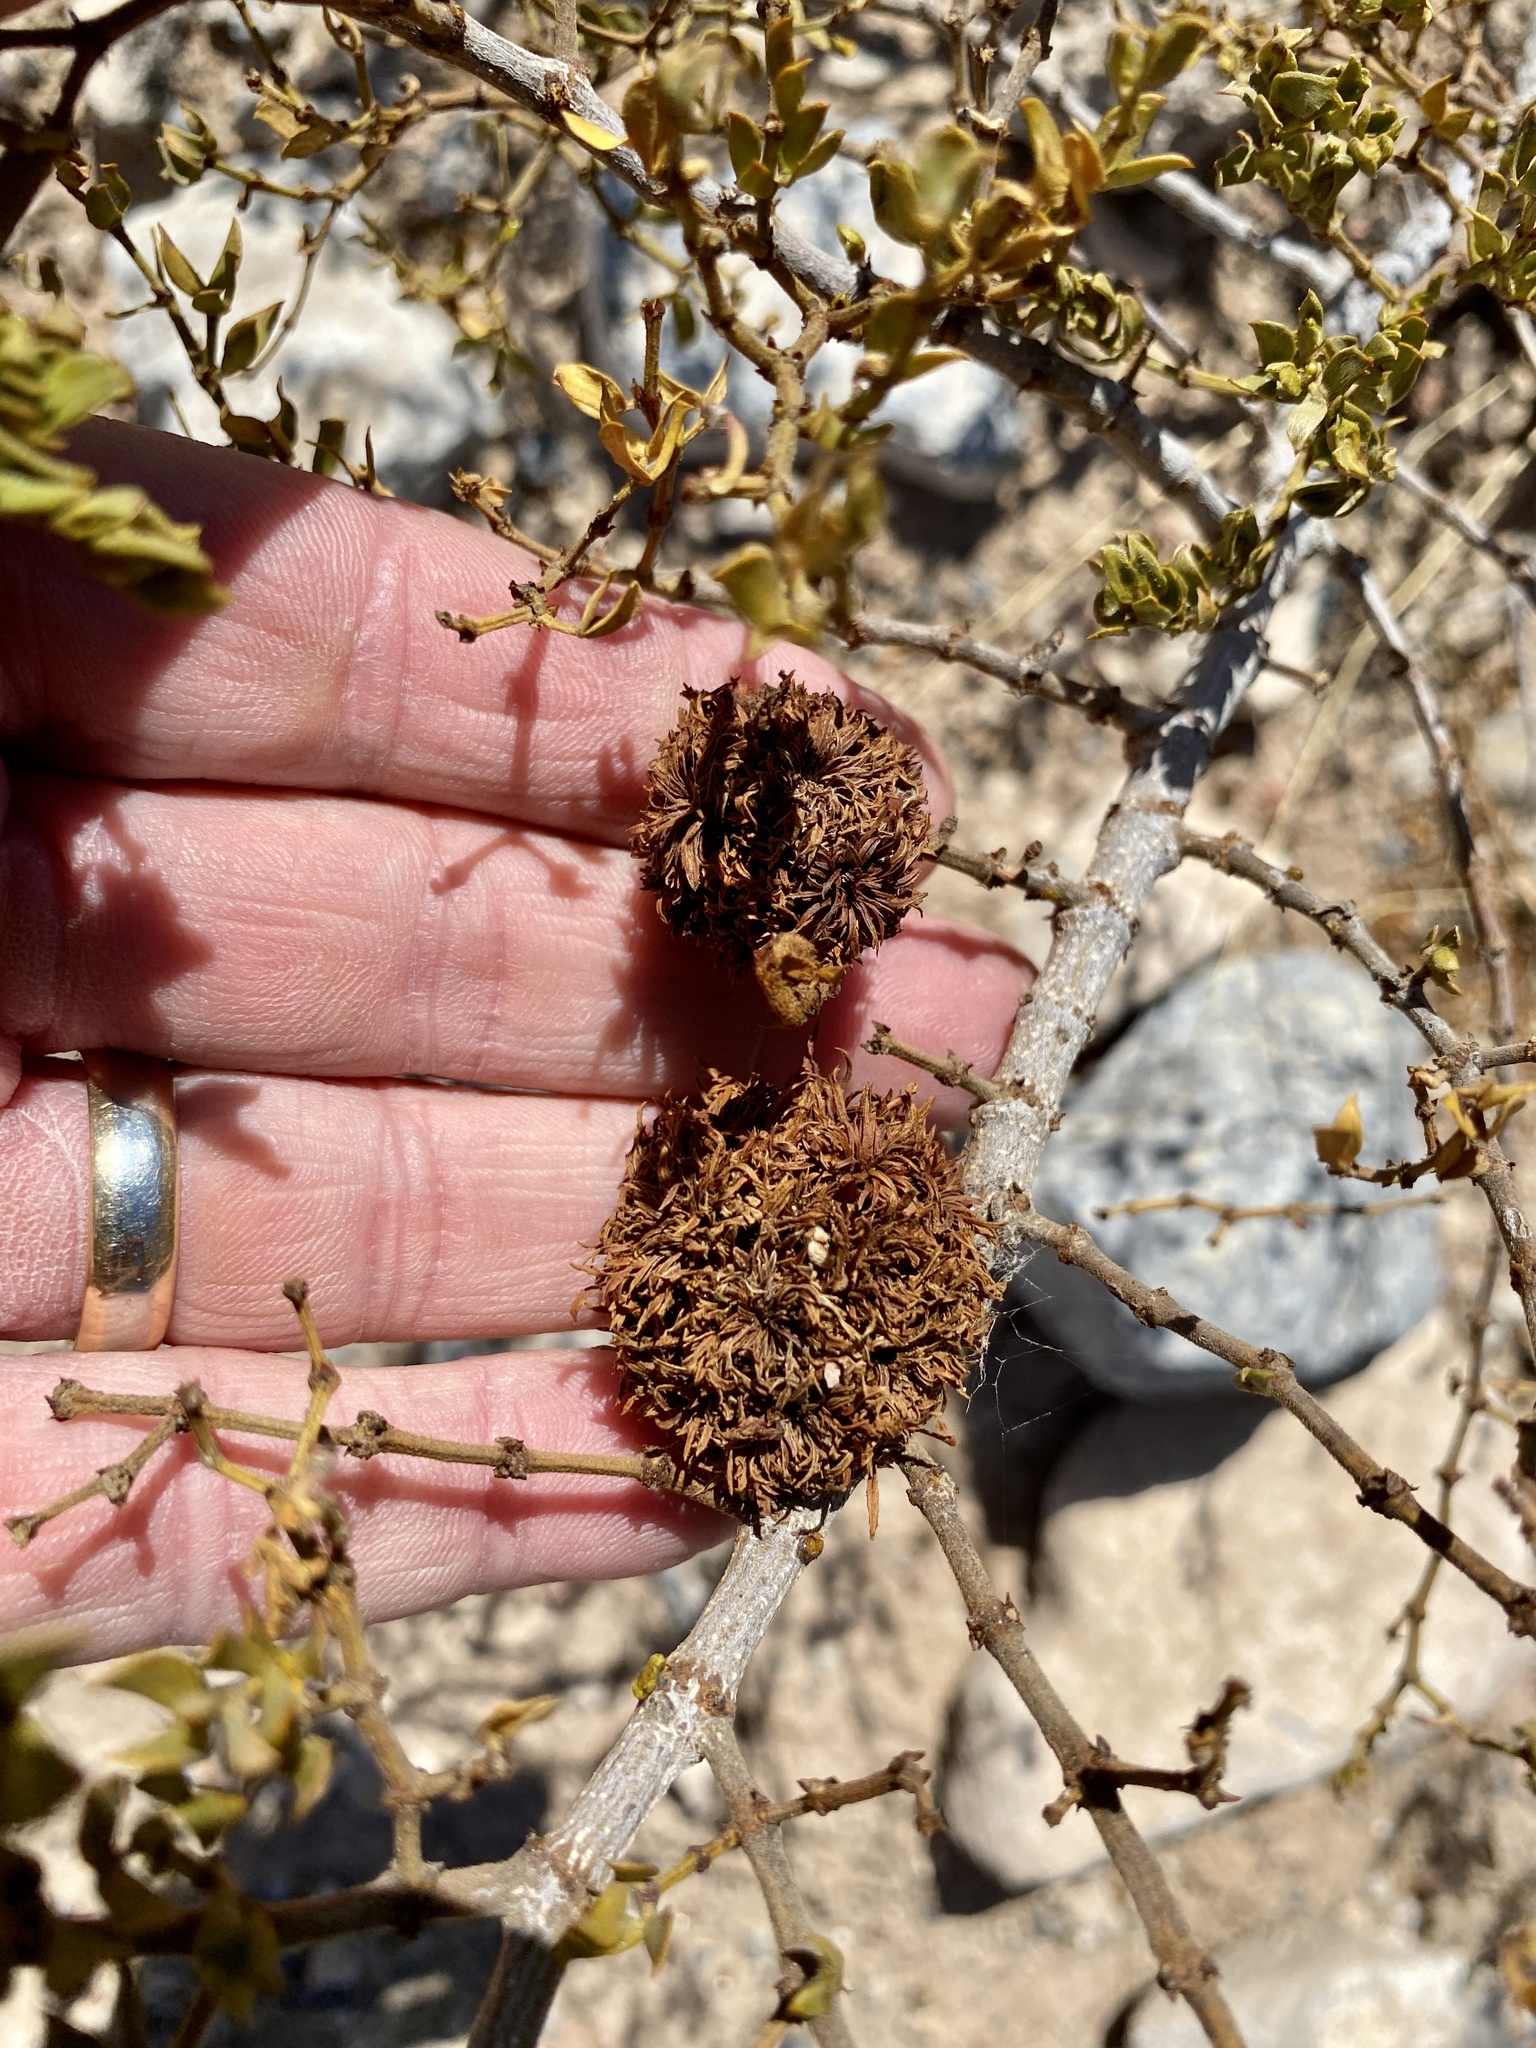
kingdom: Animalia
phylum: Arthropoda
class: Insecta
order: Diptera
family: Cecidomyiidae
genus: Asphondylia
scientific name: Asphondylia auripila
